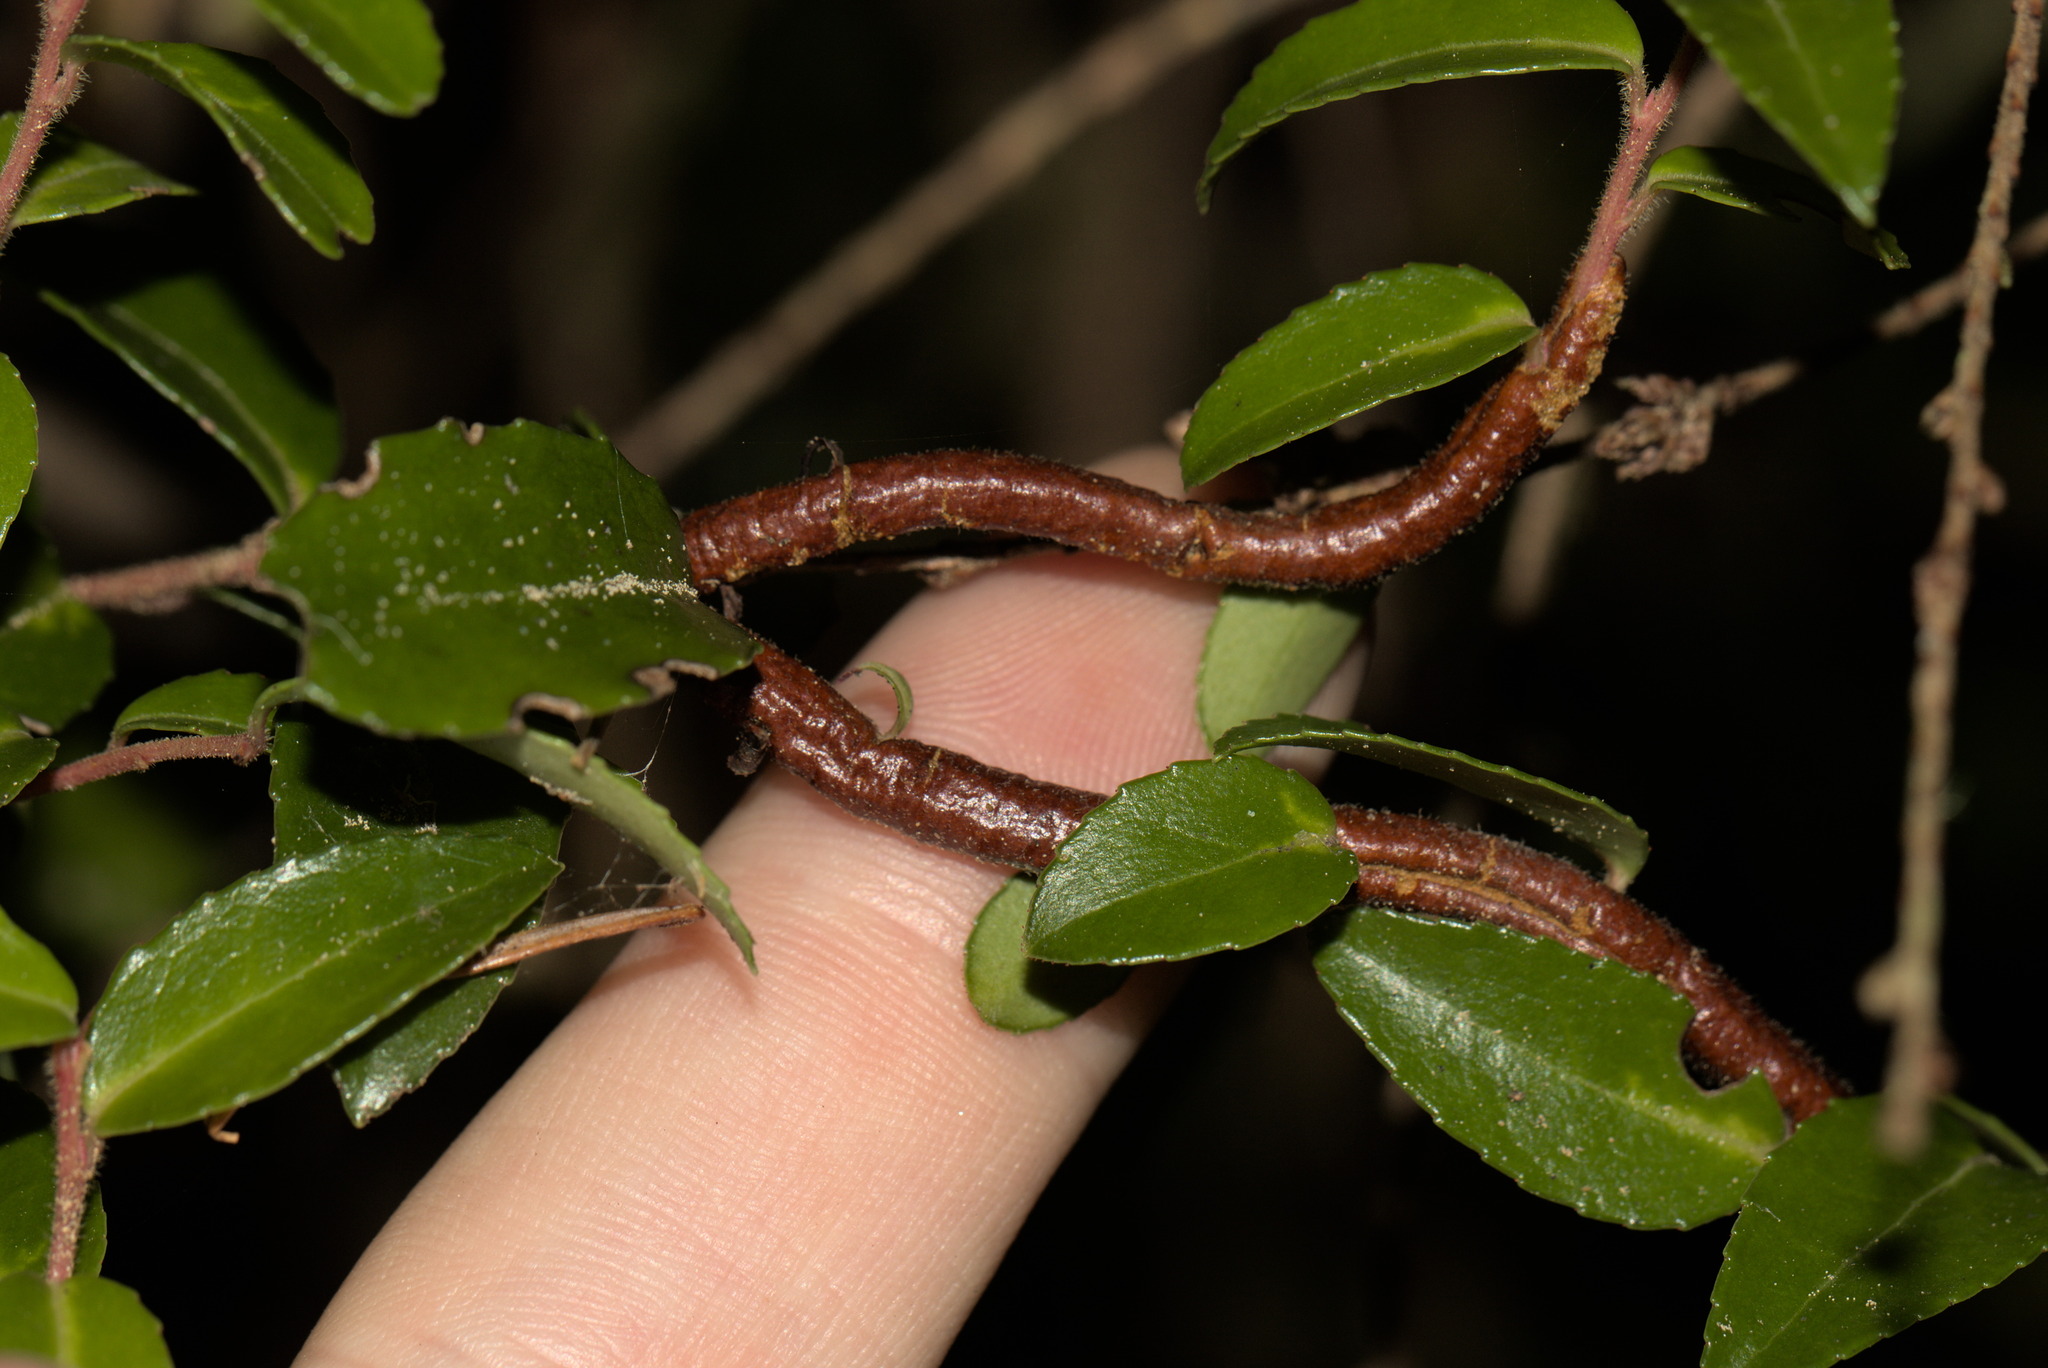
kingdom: Fungi
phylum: Basidiomycota
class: Pucciniomycetes
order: Pucciniales
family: Pucciniastraceae
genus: Calyptospora
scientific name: Calyptospora
